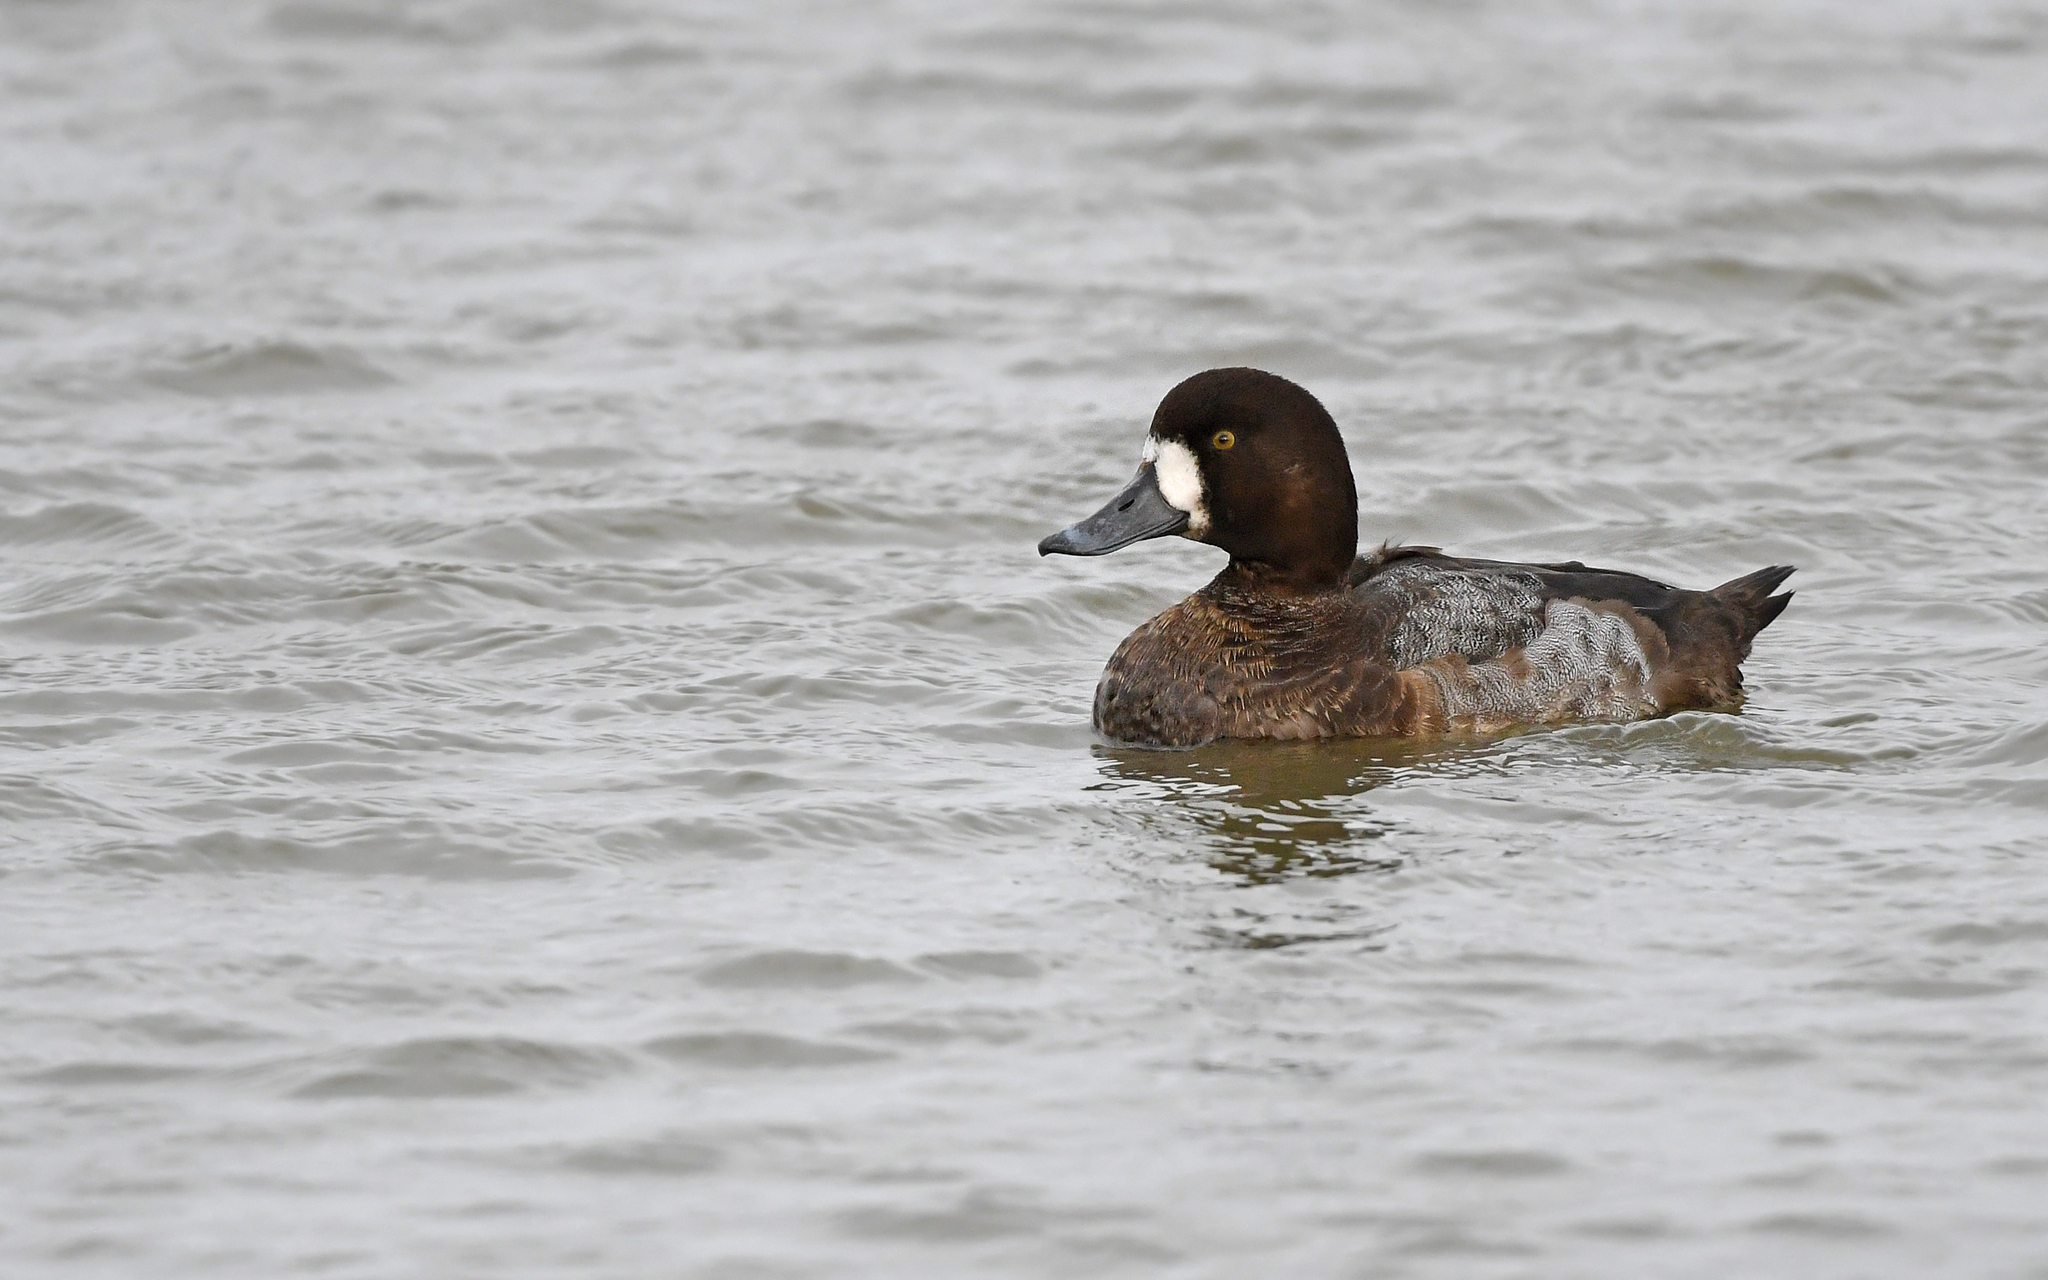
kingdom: Animalia
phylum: Chordata
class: Aves
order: Anseriformes
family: Anatidae
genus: Aythya
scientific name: Aythya marila
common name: Greater scaup
